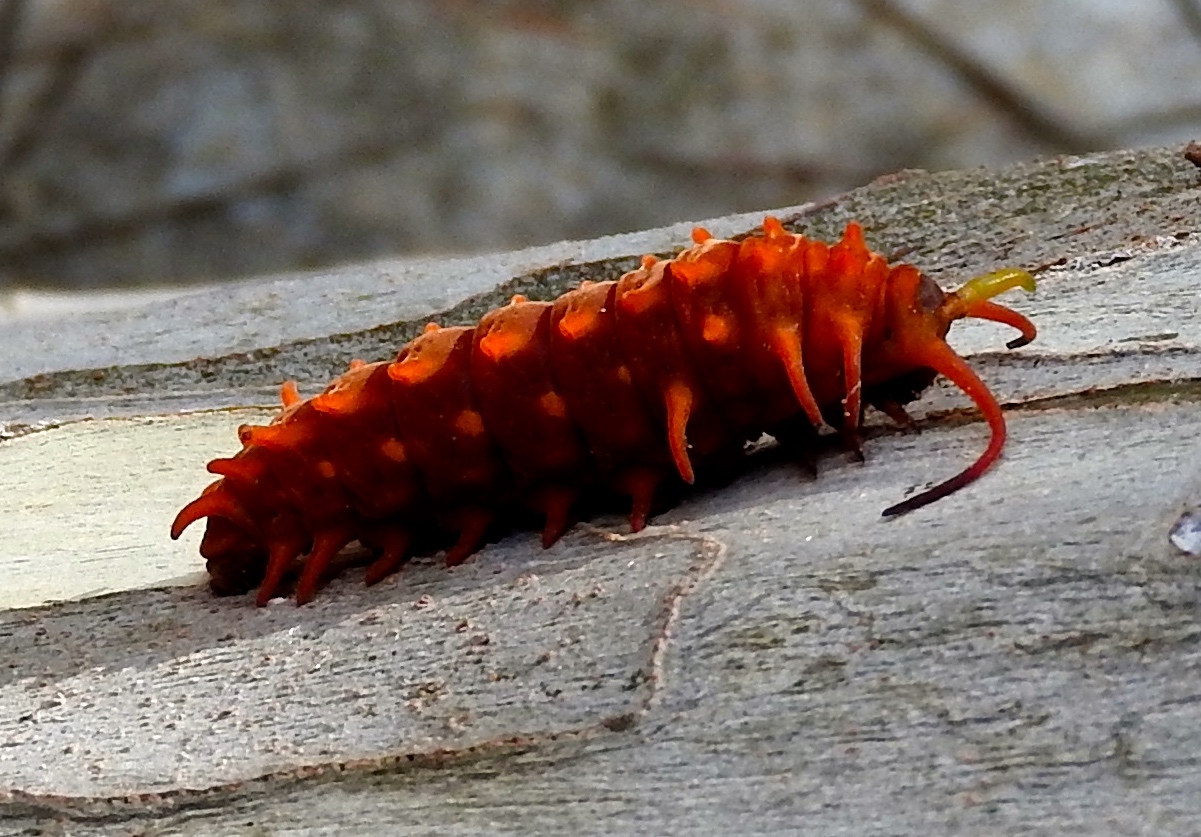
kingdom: Animalia
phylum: Arthropoda
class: Insecta
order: Lepidoptera
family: Papilionidae
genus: Battus
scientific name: Battus philenor
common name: Pipevine swallowtail
